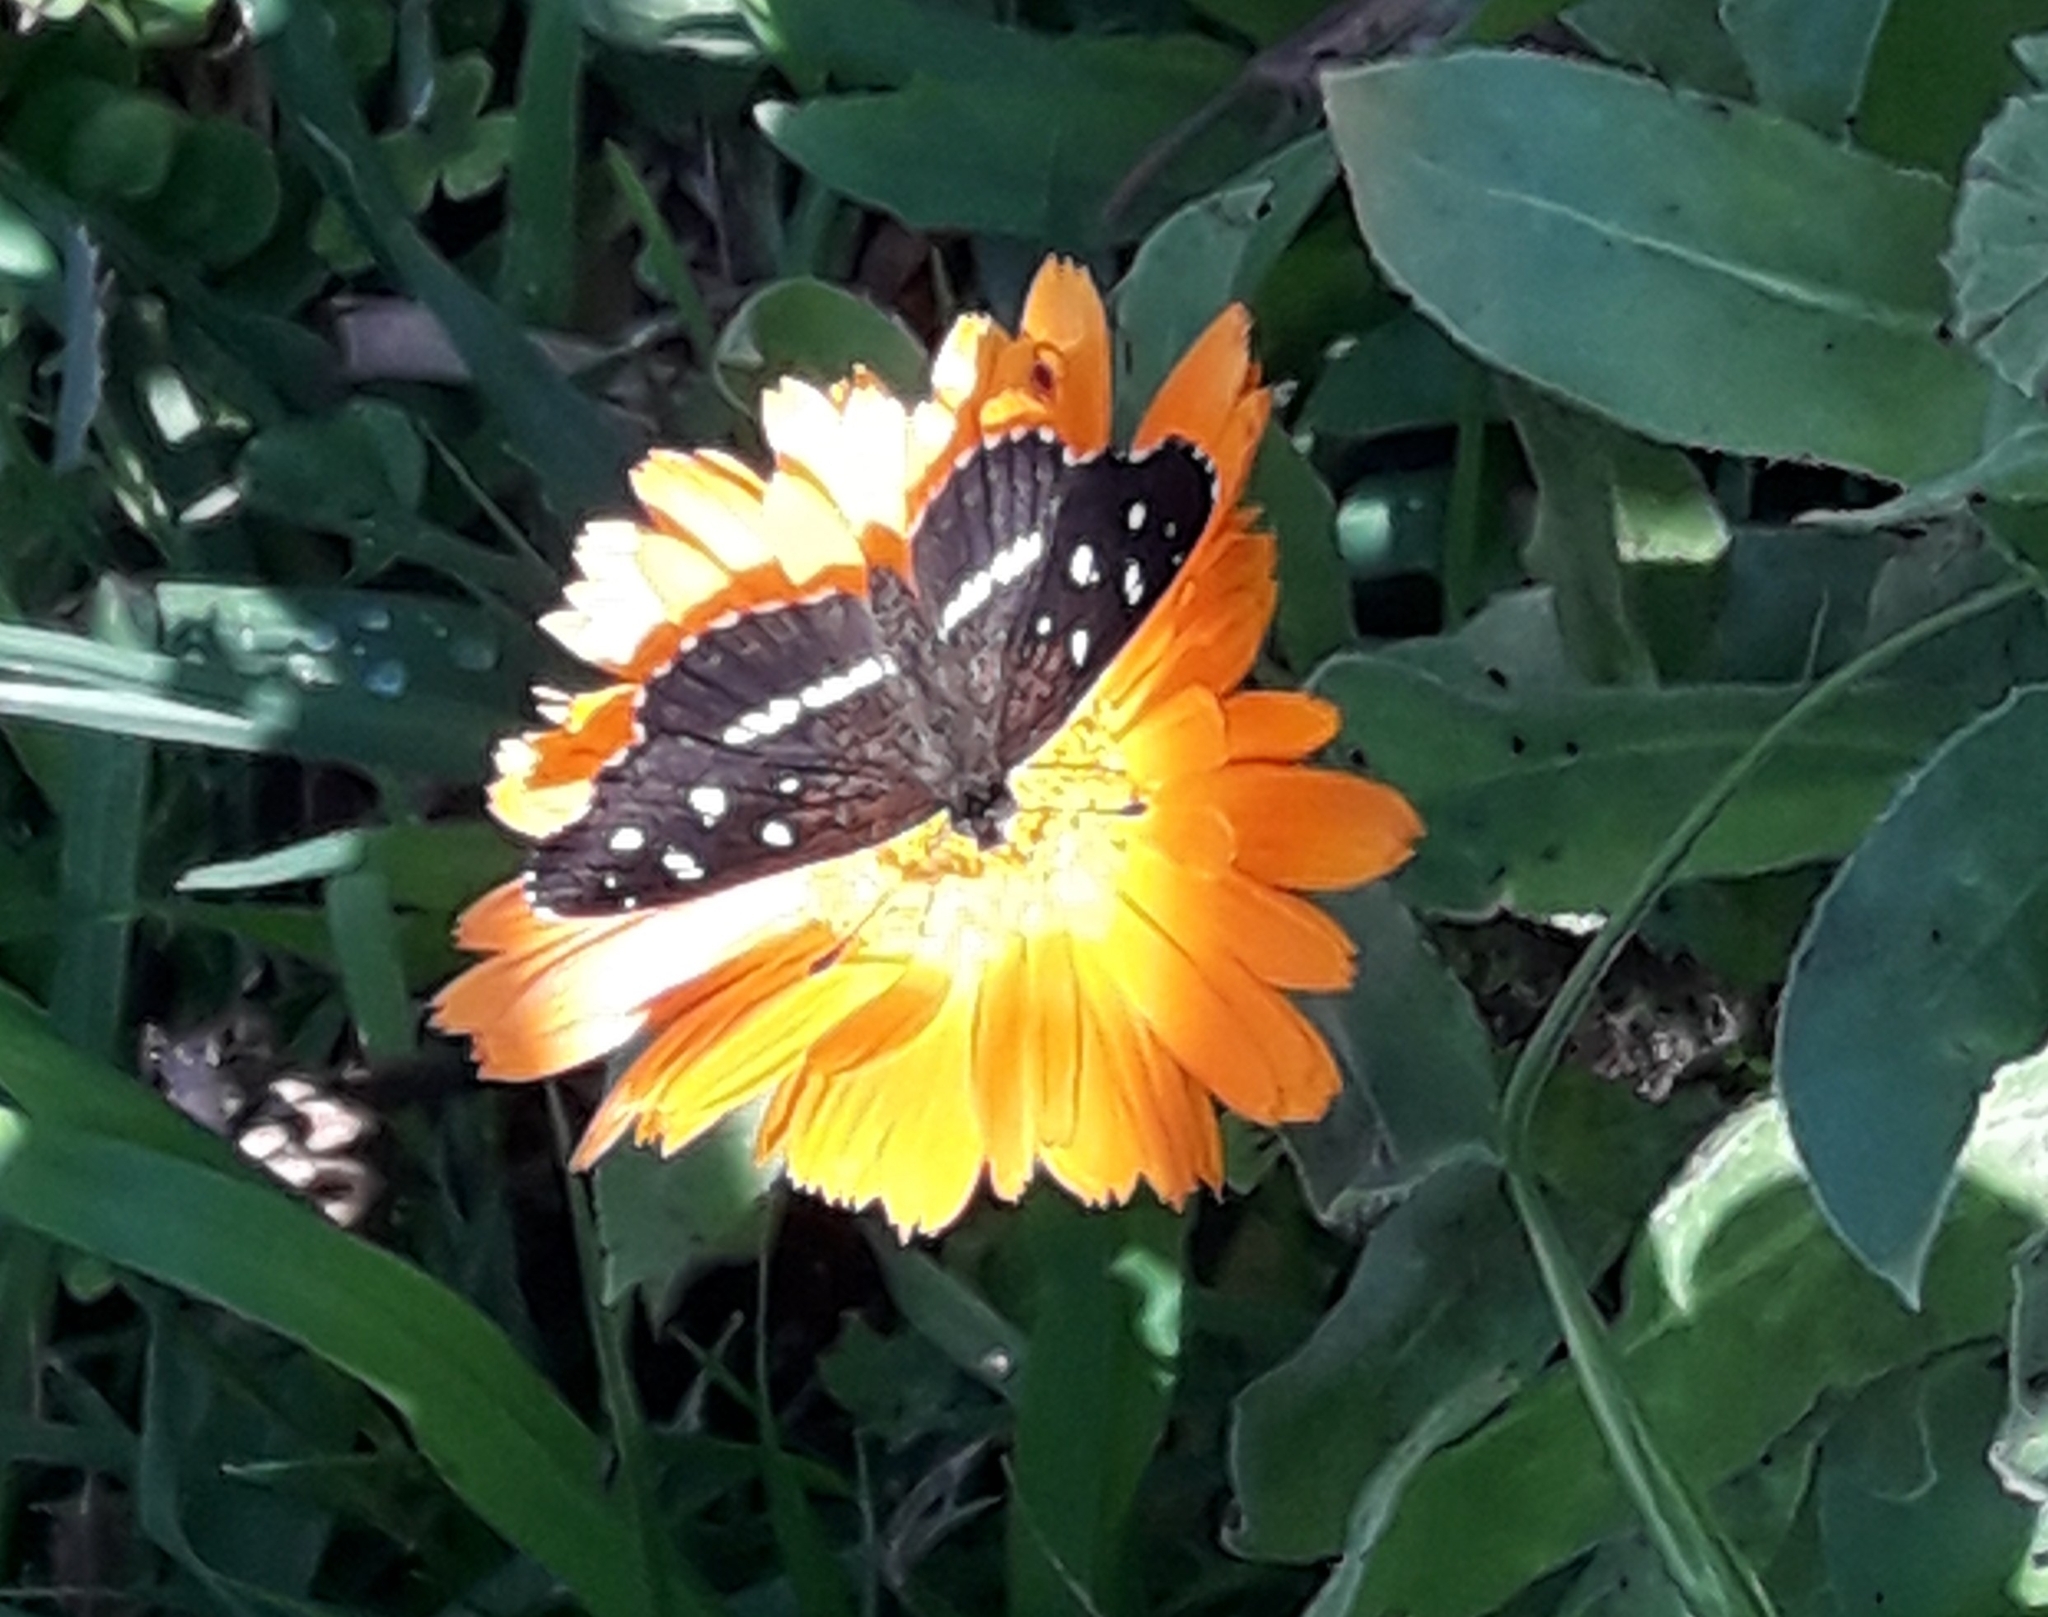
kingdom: Animalia
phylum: Arthropoda
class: Insecta
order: Lepidoptera
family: Nymphalidae
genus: Ortilia
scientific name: Ortilia ithra
